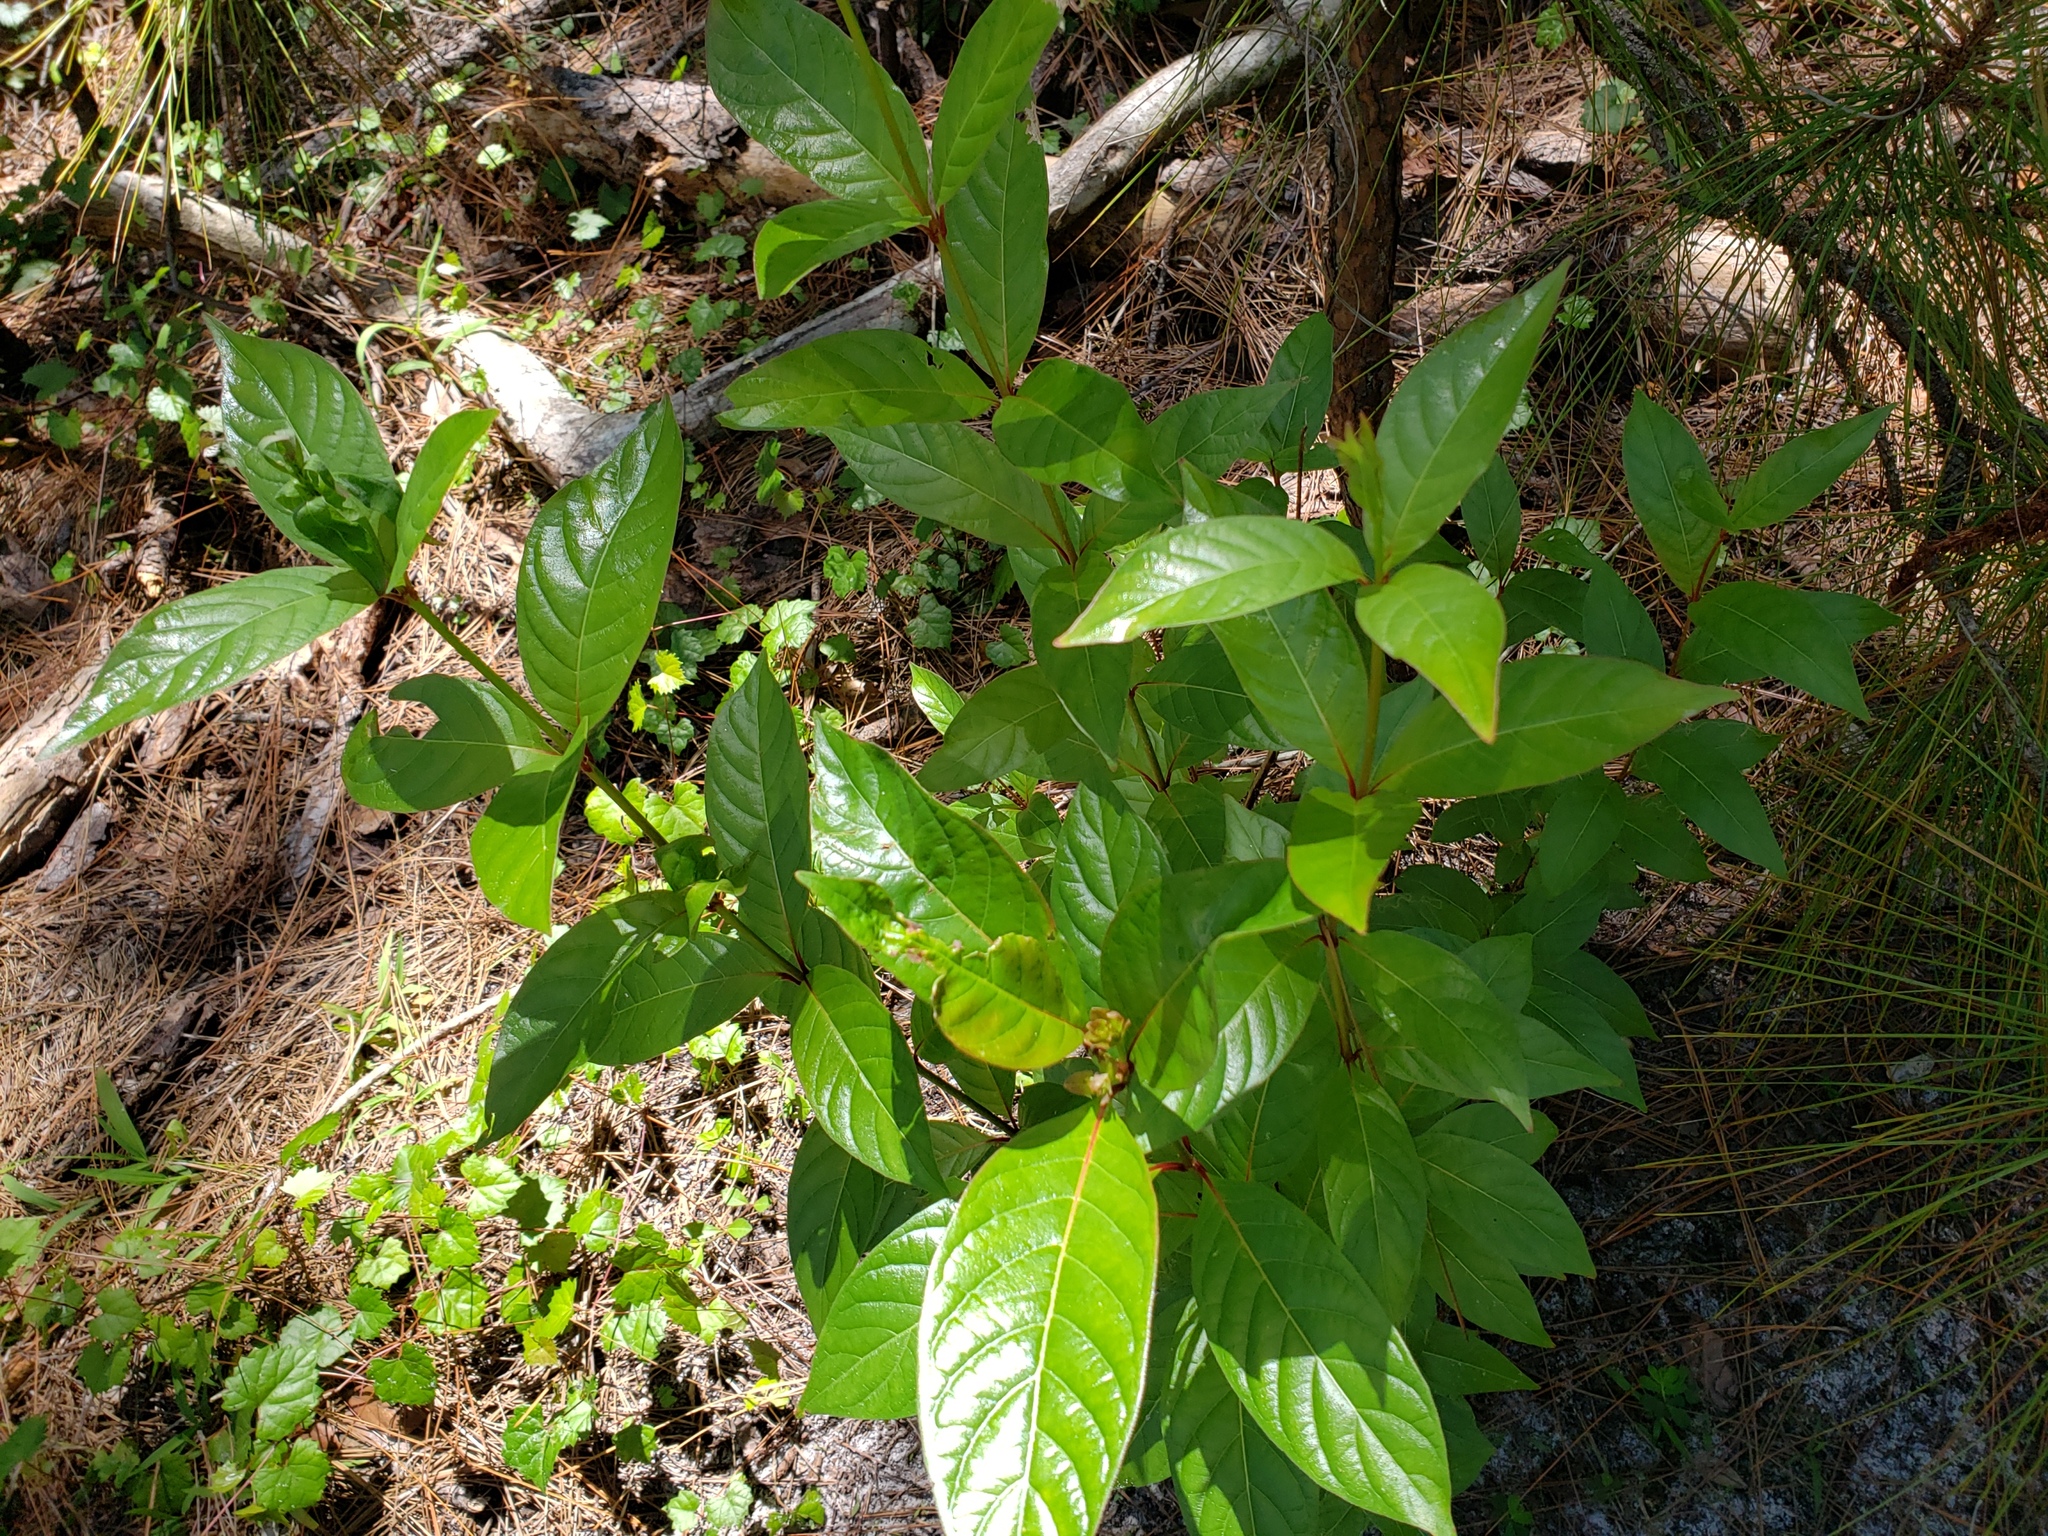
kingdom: Plantae
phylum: Tracheophyta
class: Magnoliopsida
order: Gentianales
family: Rubiaceae
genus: Cephalanthus
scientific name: Cephalanthus occidentalis
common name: Button-willow
